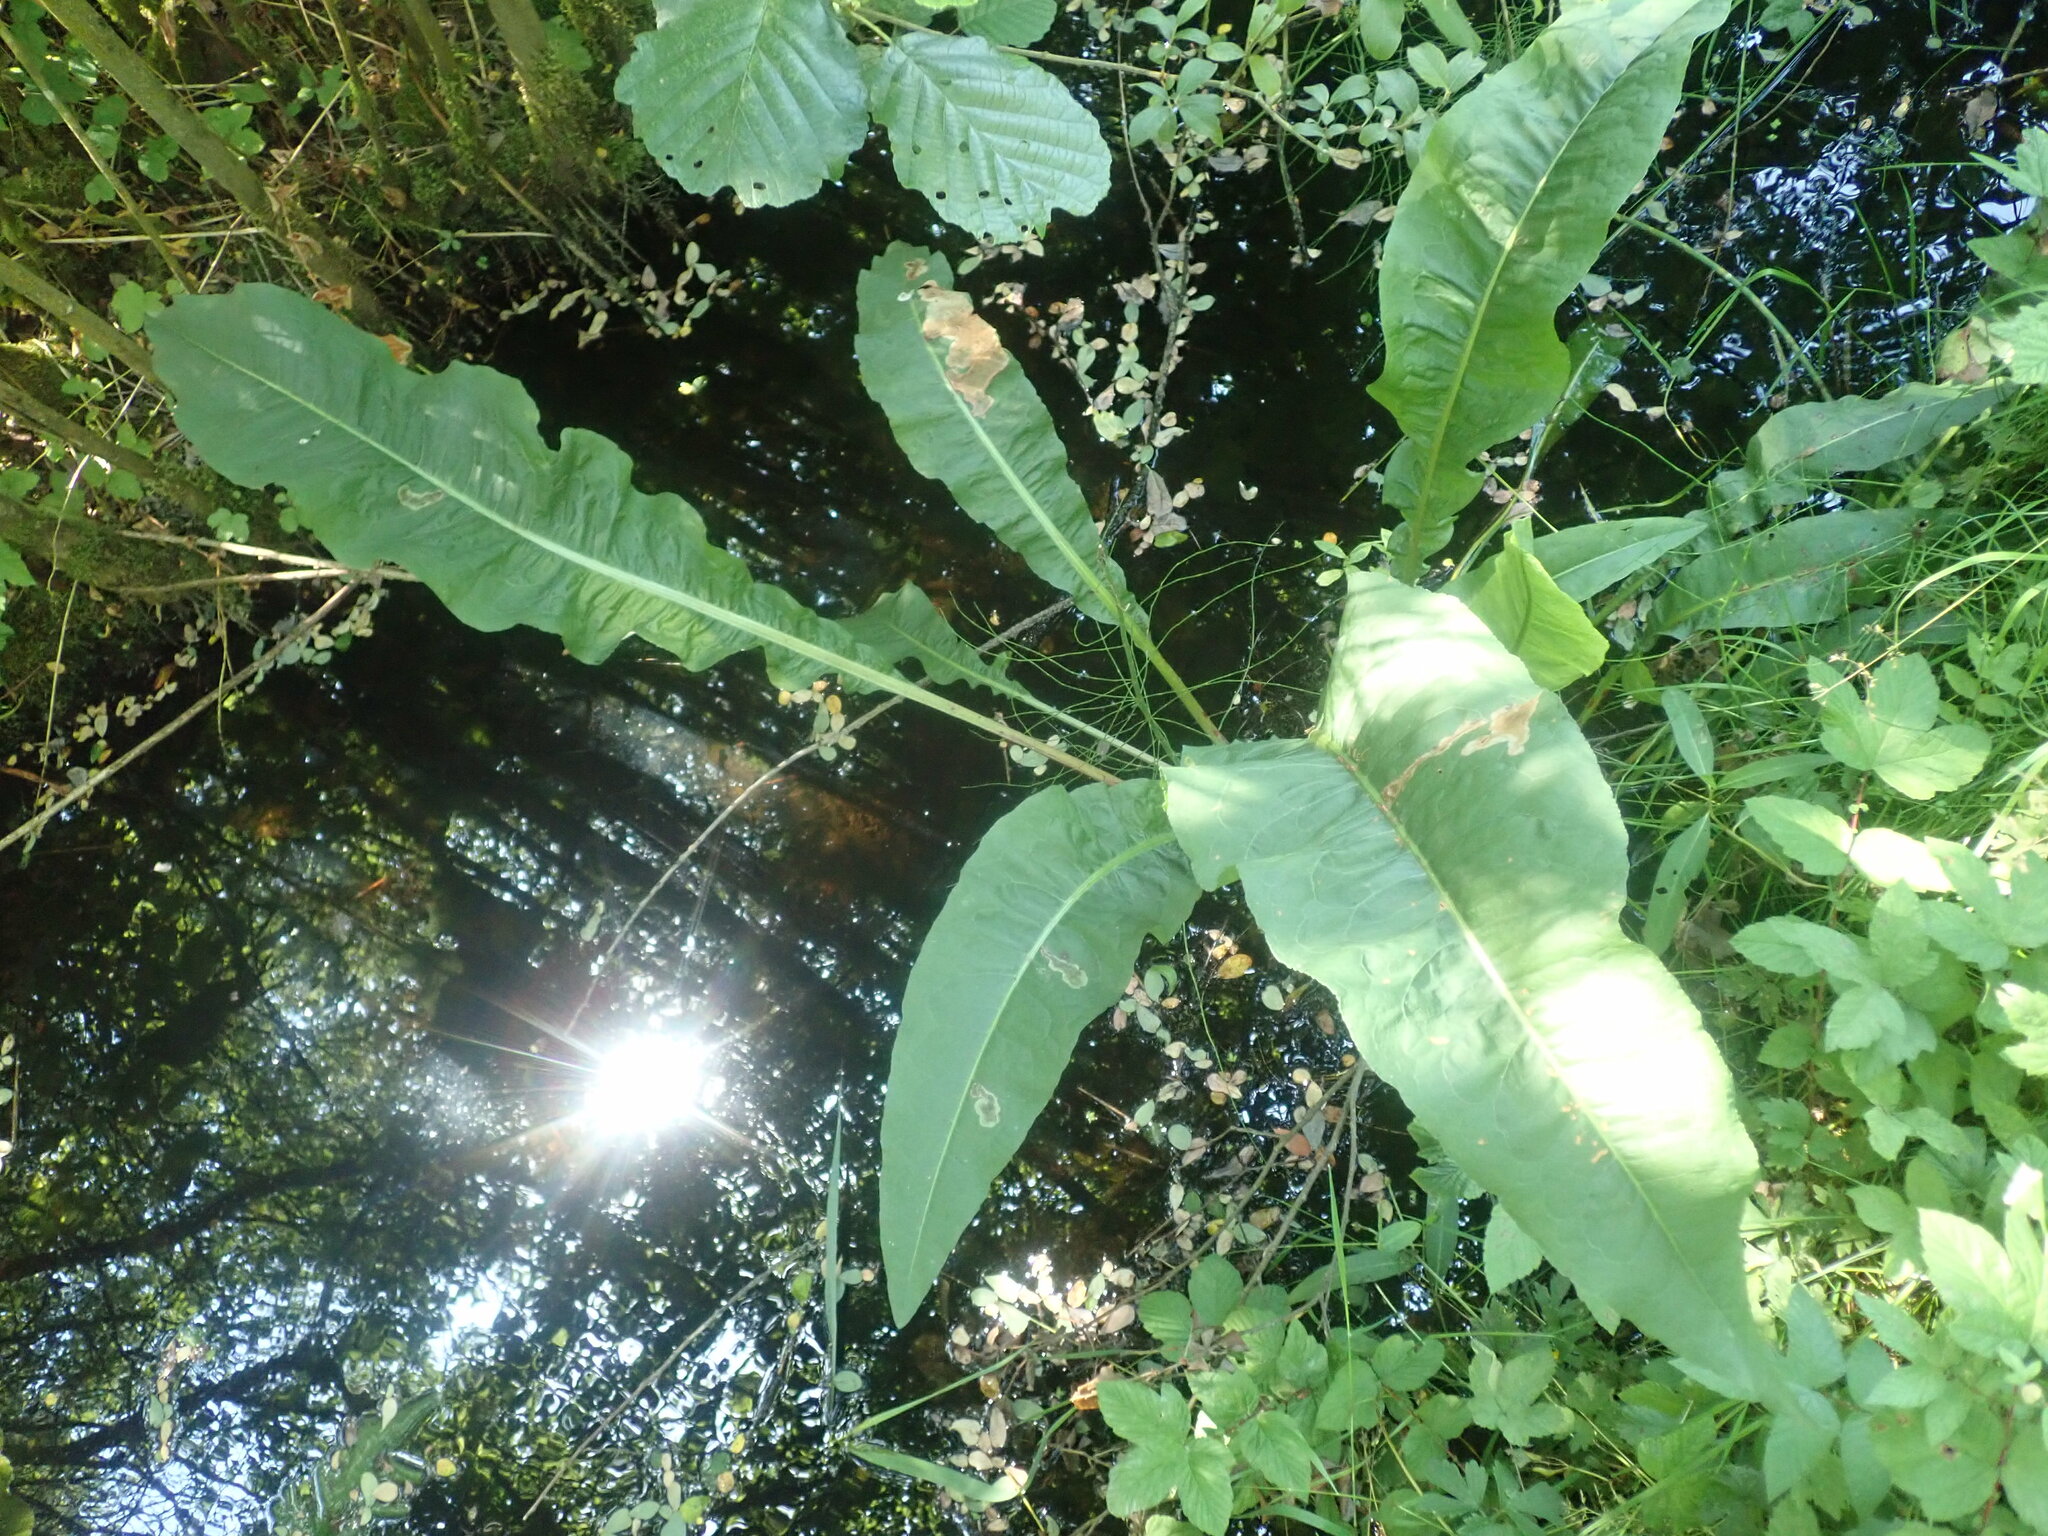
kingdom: Plantae
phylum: Tracheophyta
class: Magnoliopsida
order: Caryophyllales
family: Polygonaceae
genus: Rumex
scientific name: Rumex hydrolapathum
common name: Water dock
